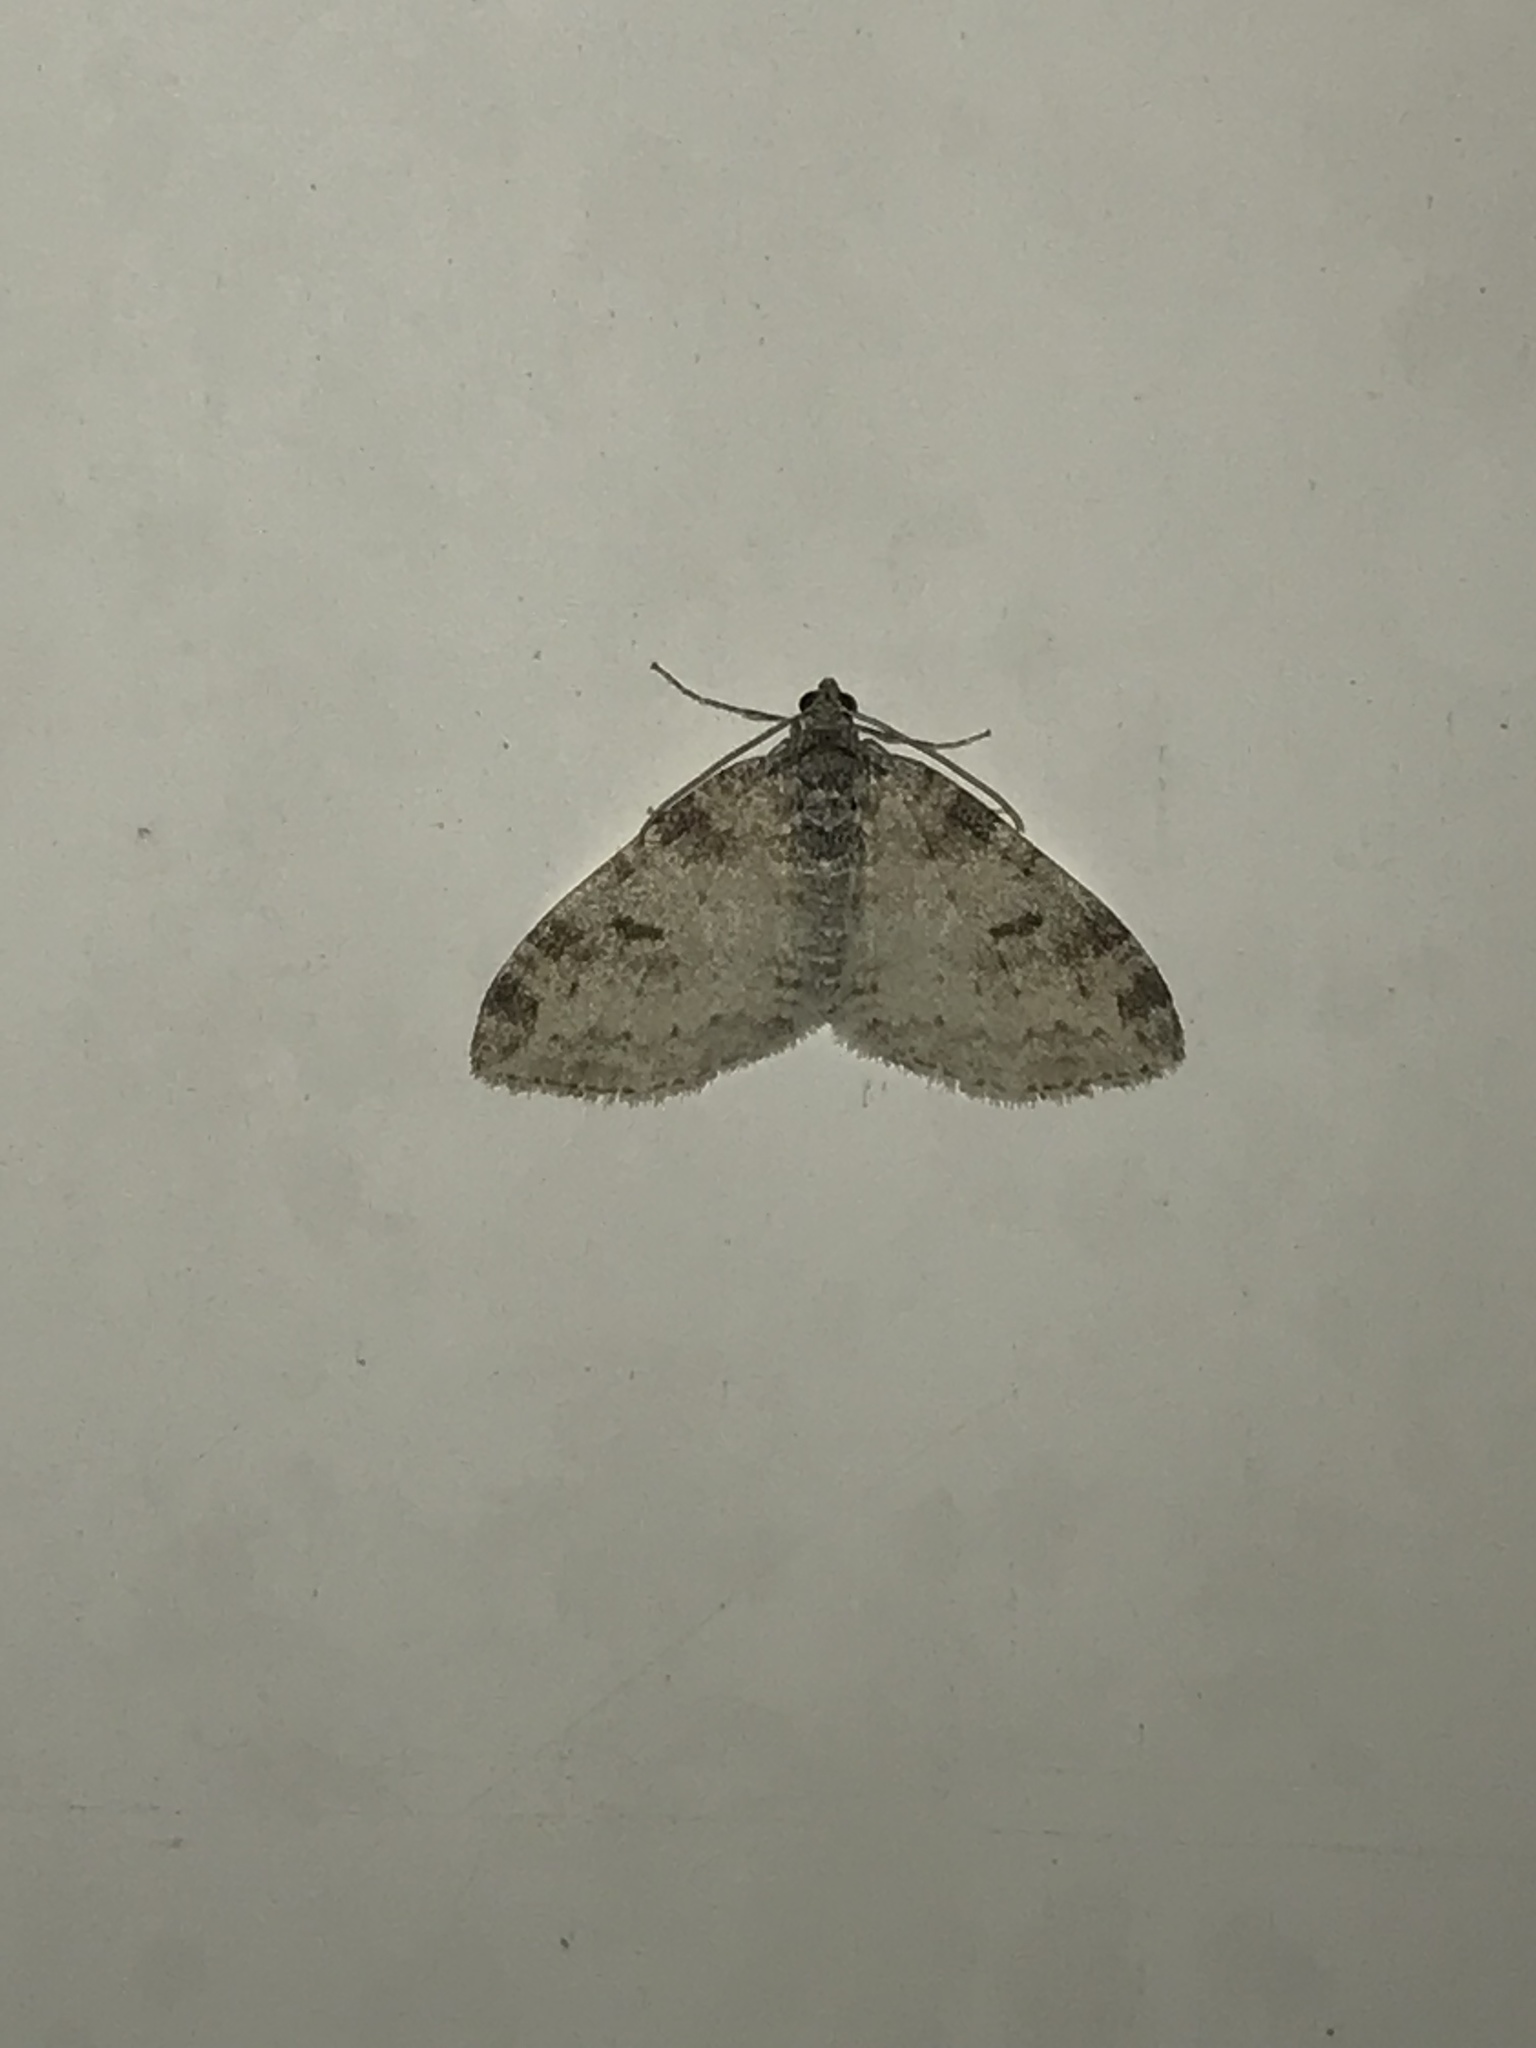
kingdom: Animalia
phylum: Arthropoda
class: Insecta
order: Lepidoptera
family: Geometridae
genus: Lobophora
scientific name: Lobophora nivigerata
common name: Powdered bigwing
